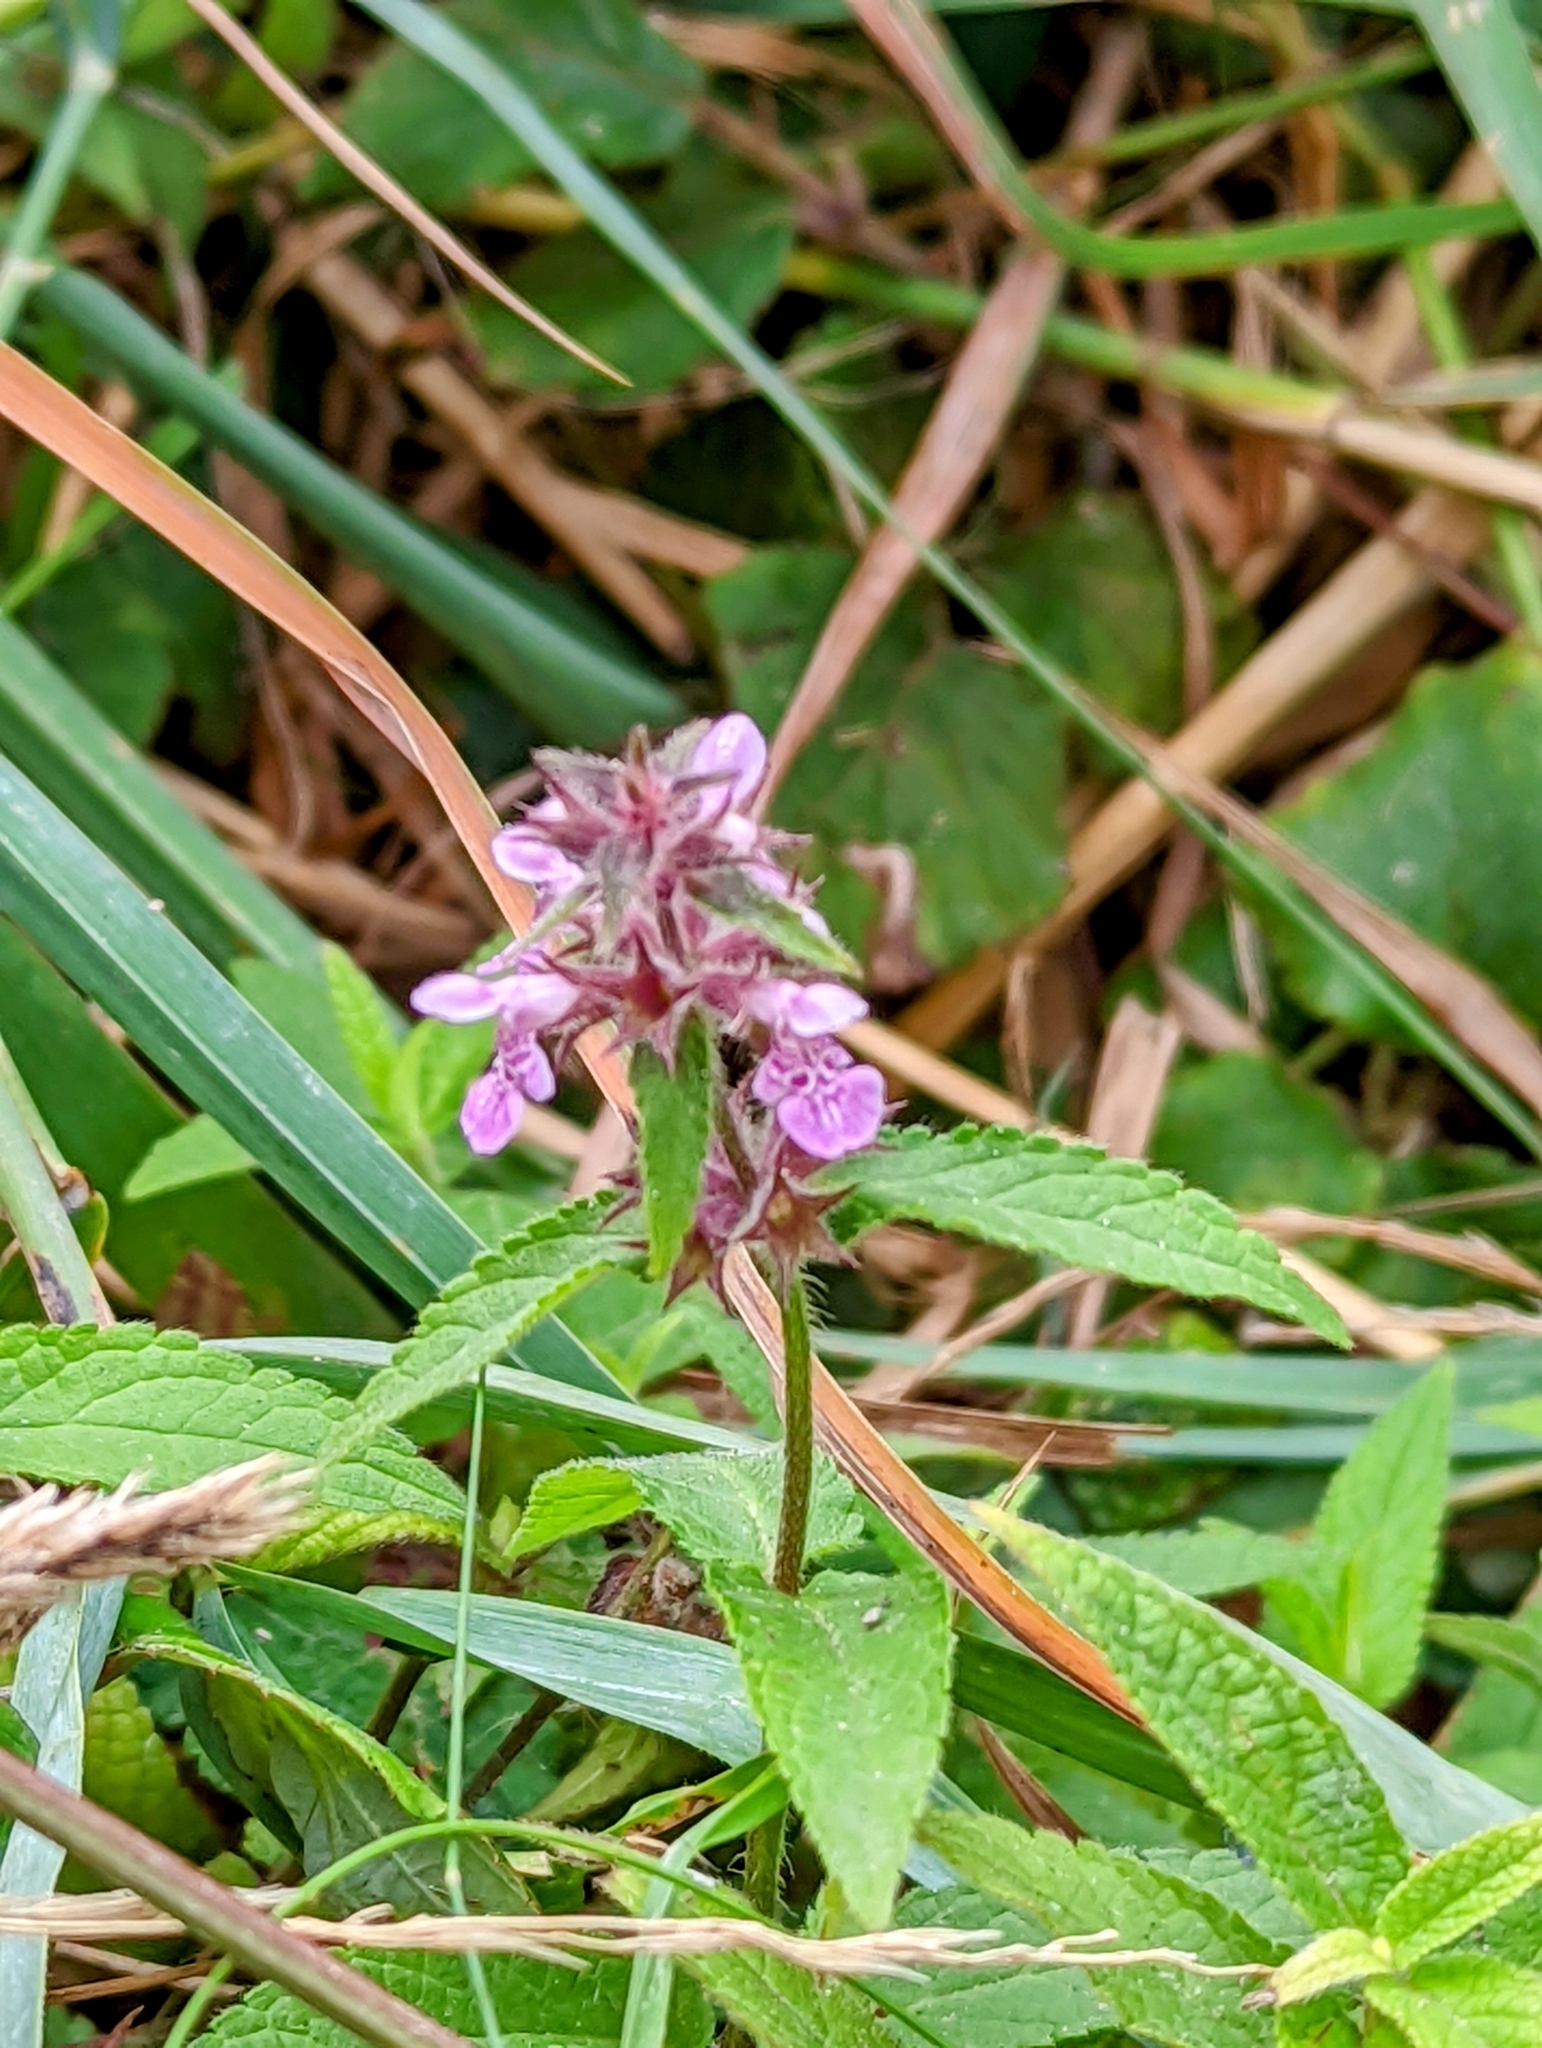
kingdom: Plantae
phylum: Tracheophyta
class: Magnoliopsida
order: Lamiales
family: Lamiaceae
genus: Stachys
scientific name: Stachys palustris
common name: Marsh woundwort
